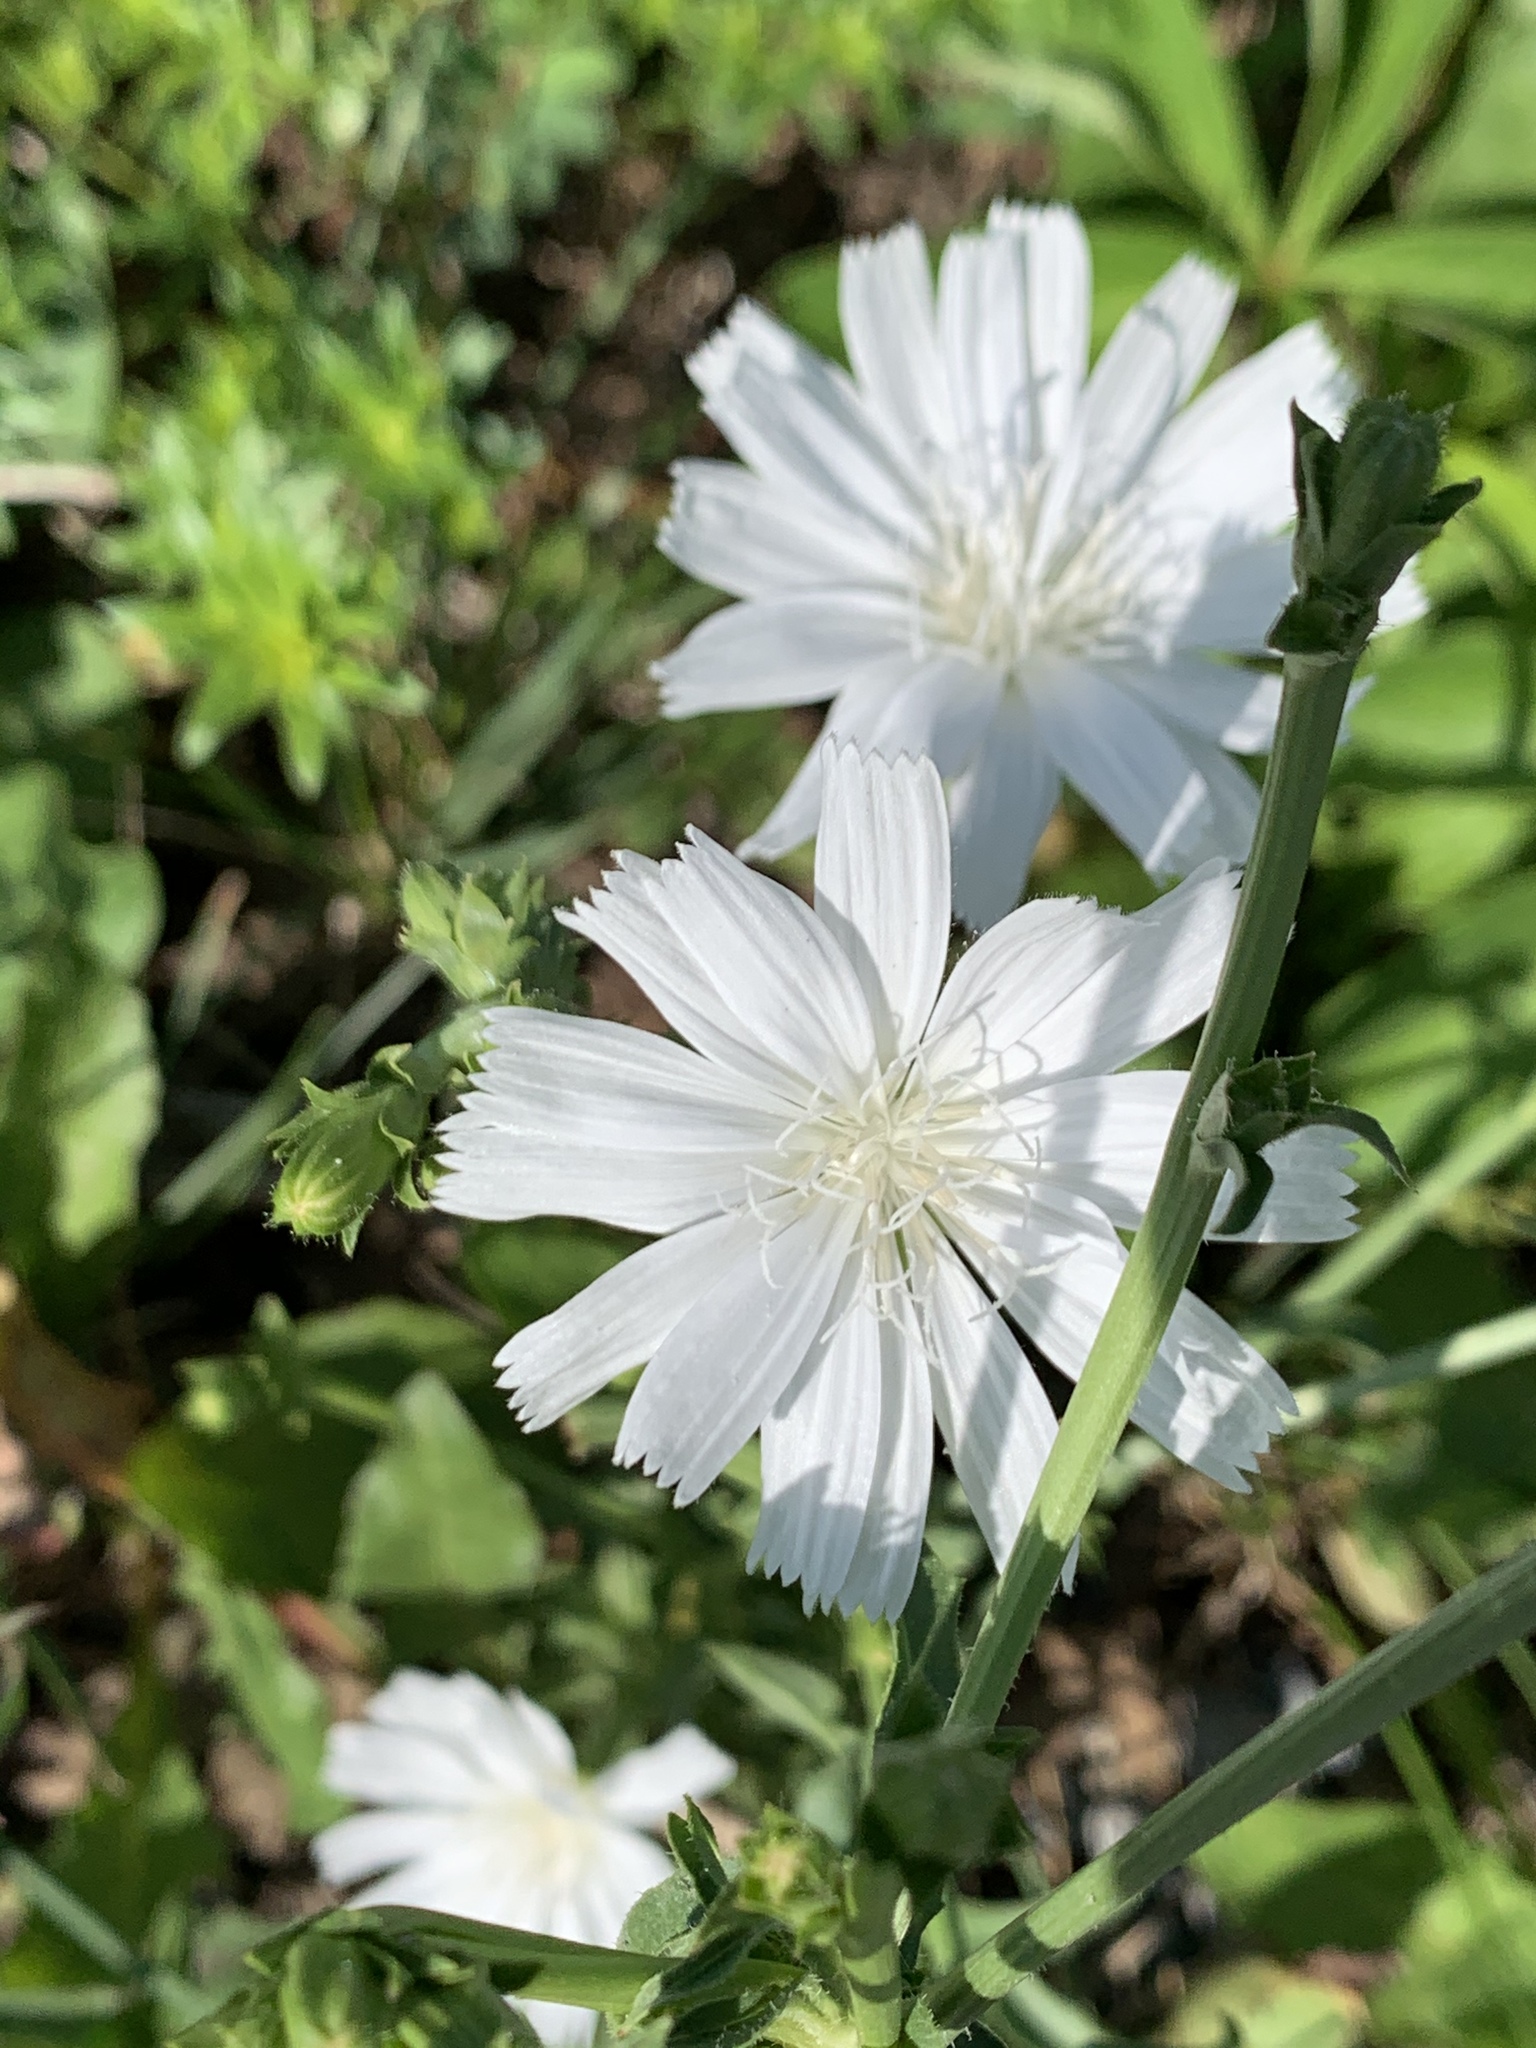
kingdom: Plantae
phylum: Tracheophyta
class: Magnoliopsida
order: Asterales
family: Asteraceae
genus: Cichorium
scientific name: Cichorium intybus
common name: Chicory
